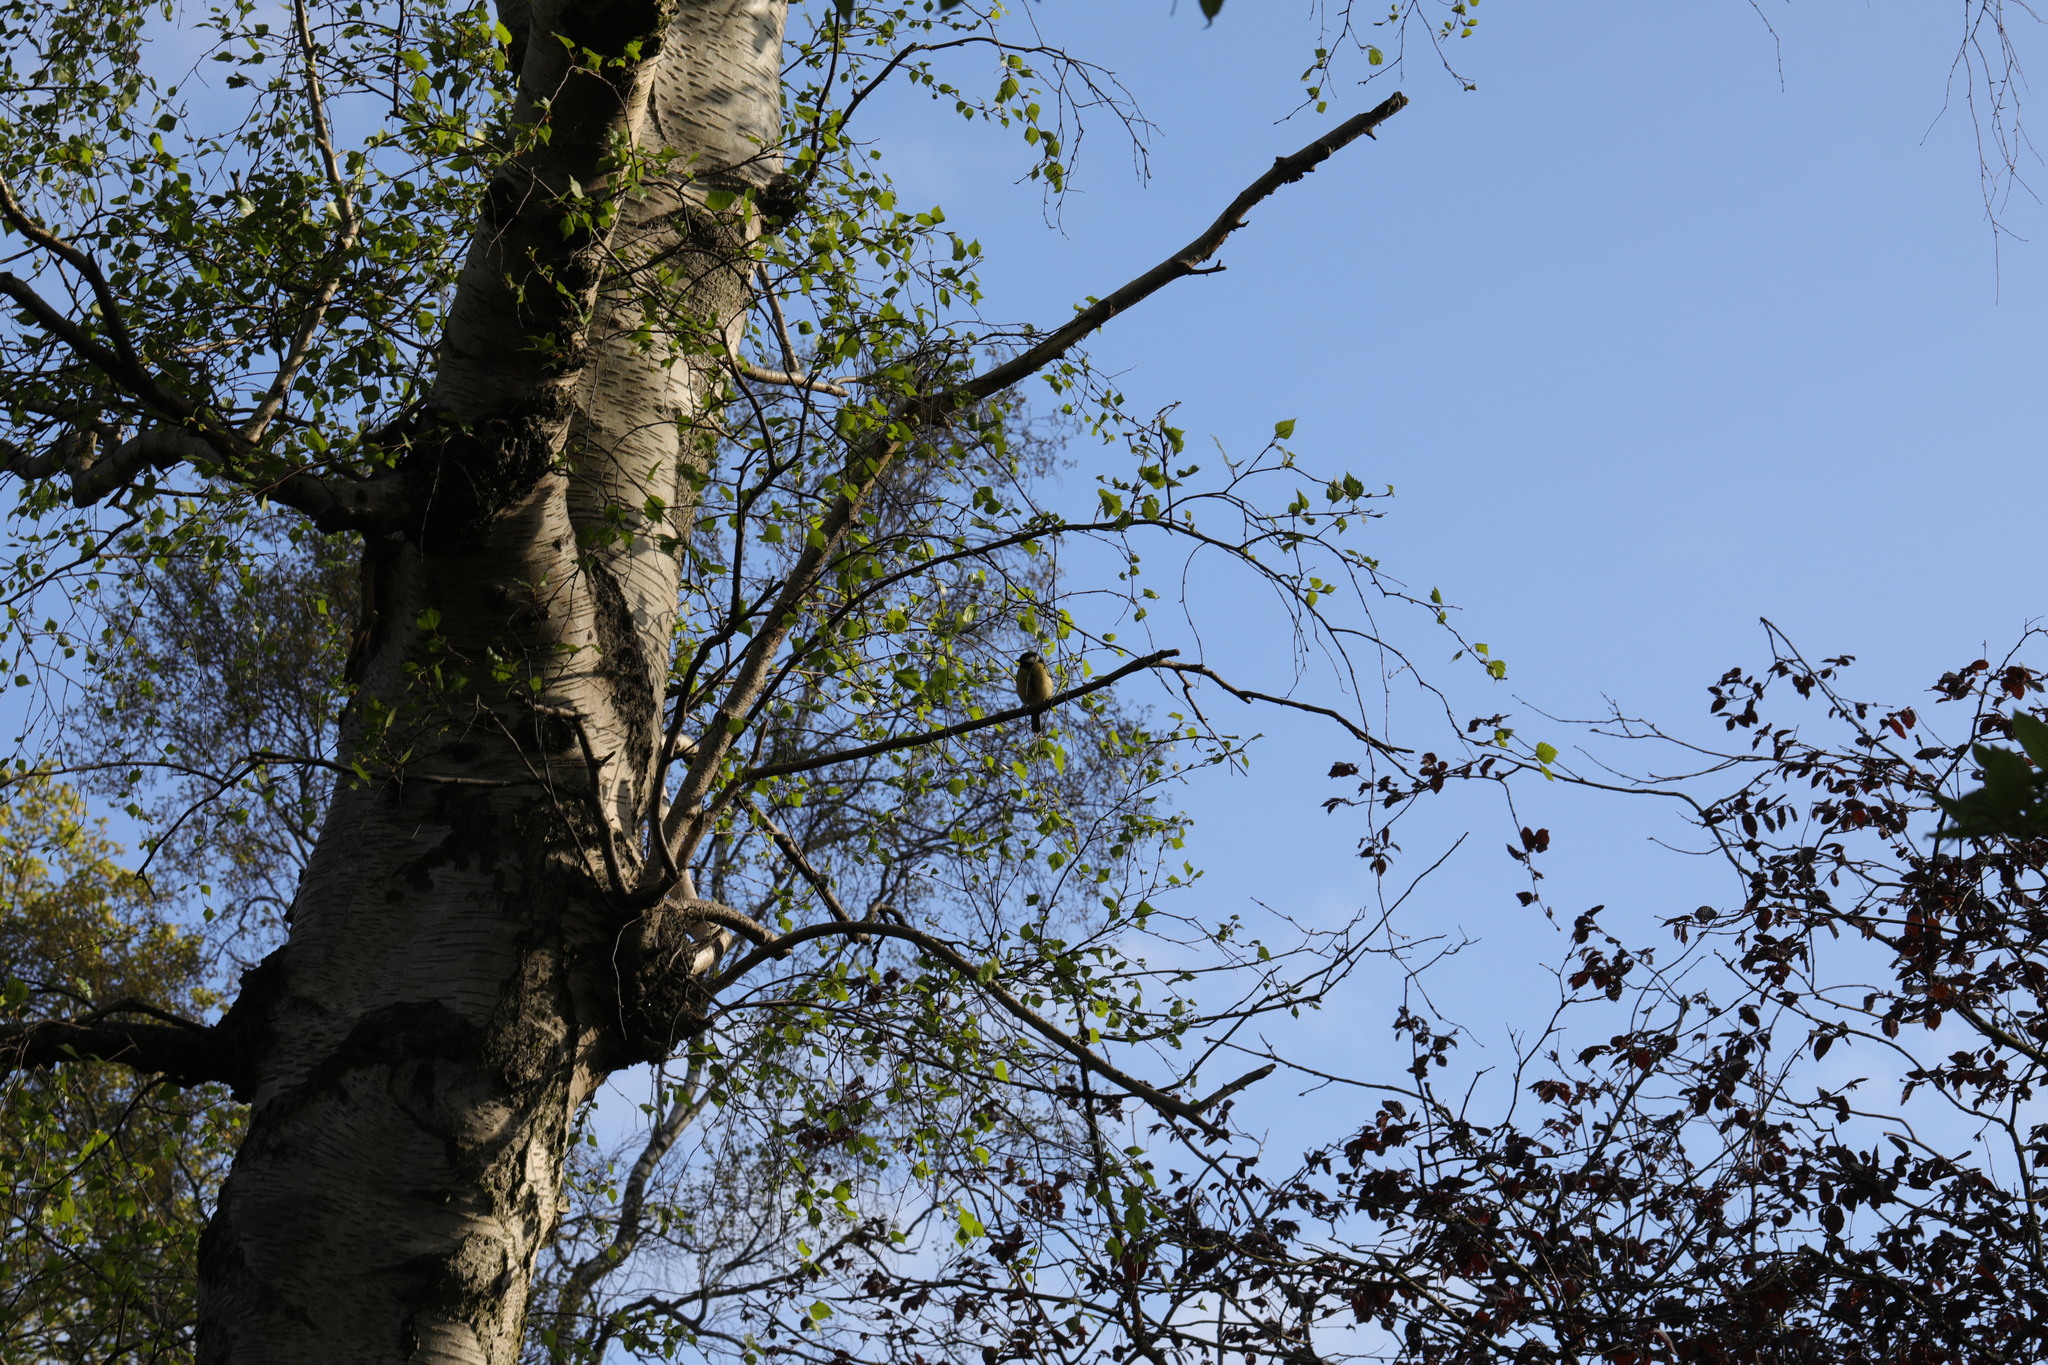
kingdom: Animalia
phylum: Chordata
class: Aves
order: Passeriformes
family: Paridae
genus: Parus
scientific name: Parus major
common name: Great tit
